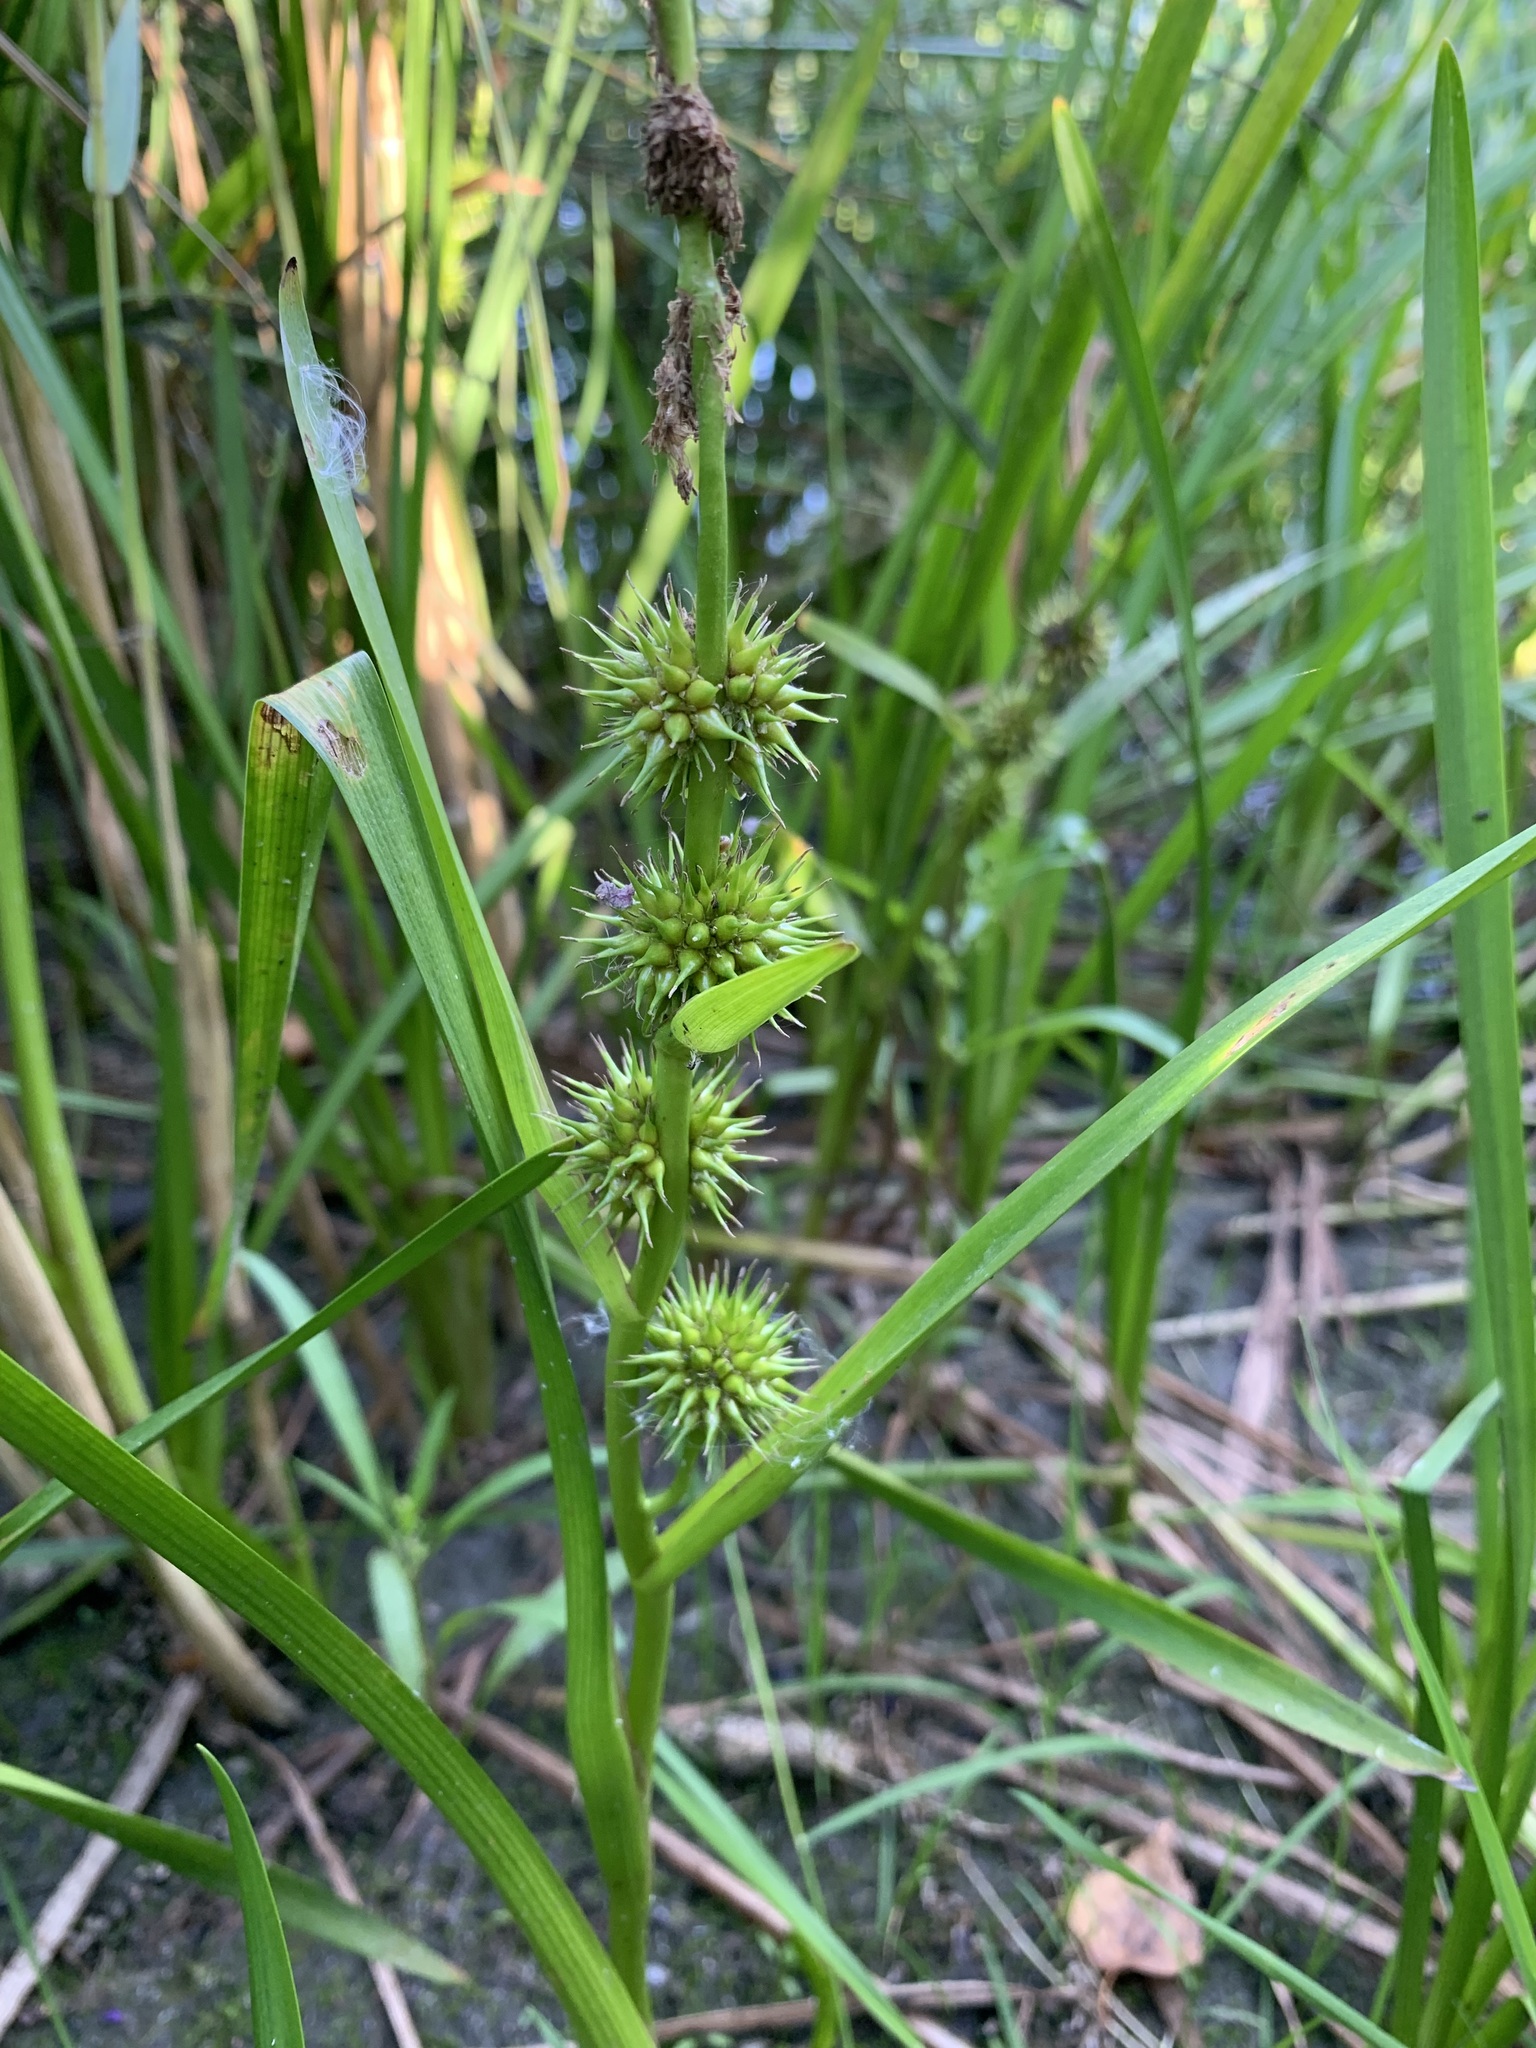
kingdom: Plantae
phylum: Tracheophyta
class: Liliopsida
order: Poales
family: Typhaceae
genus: Sparganium
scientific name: Sparganium emersum
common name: Unbranched bur-reed
